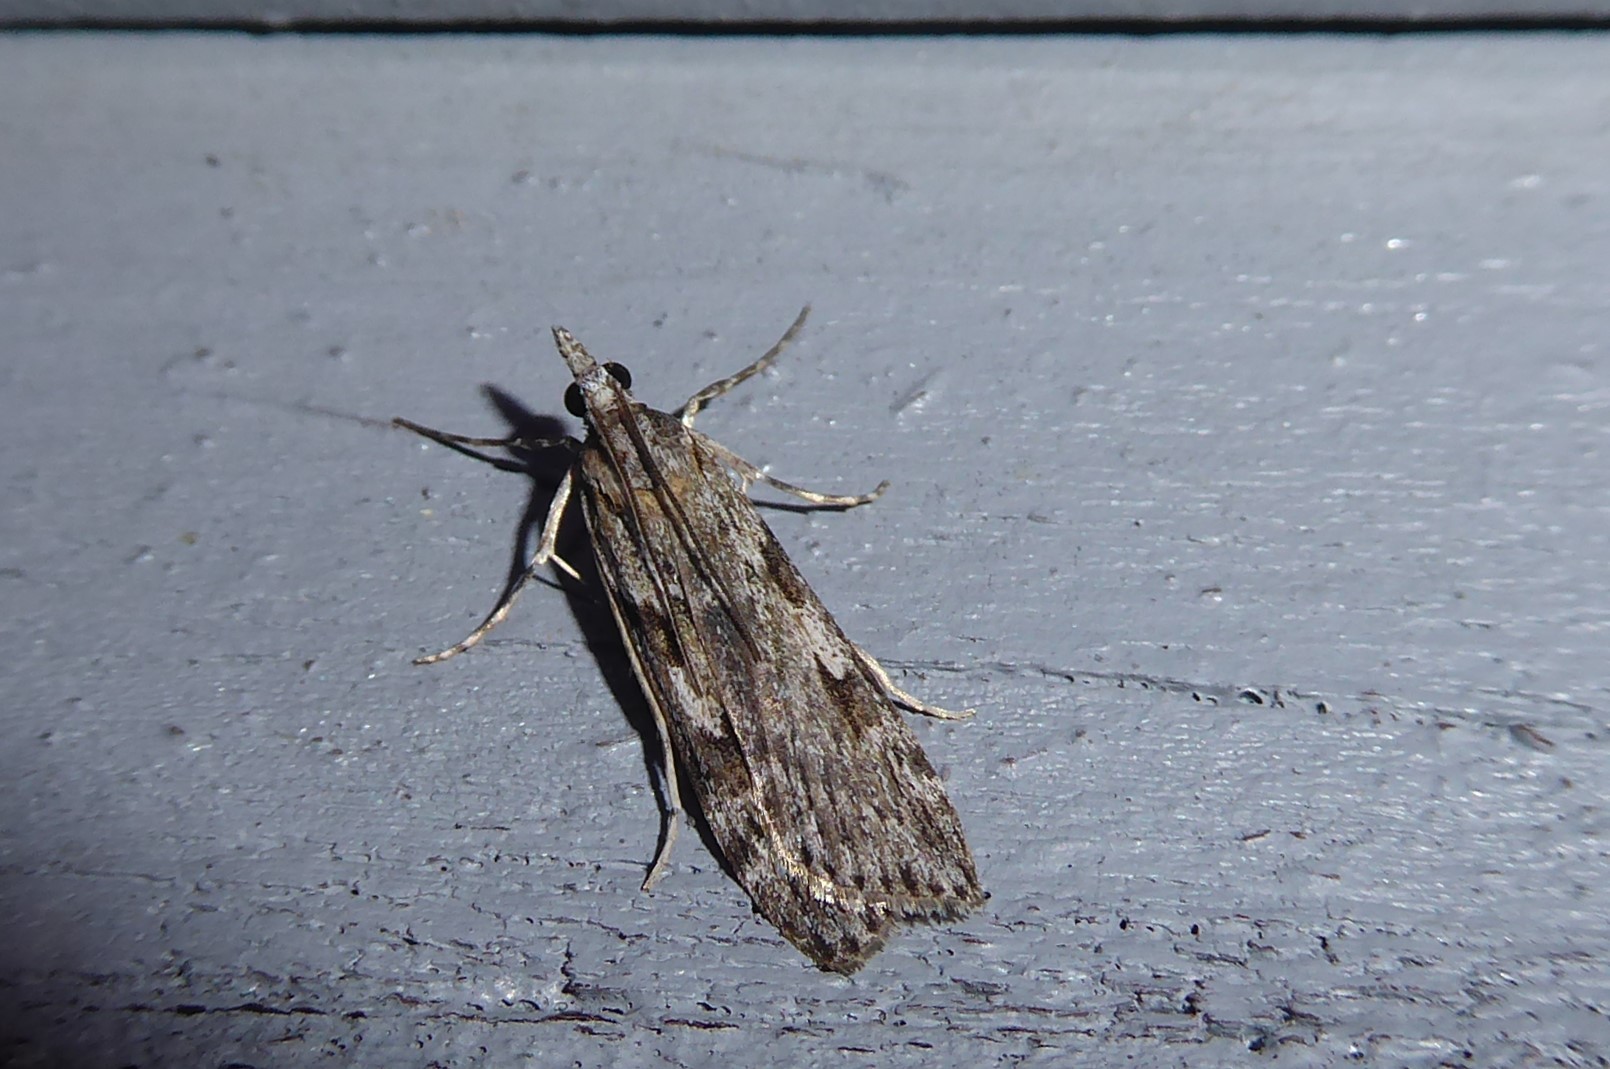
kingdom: Animalia
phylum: Arthropoda
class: Insecta
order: Lepidoptera
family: Crambidae
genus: Scoparia
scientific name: Scoparia halopis
